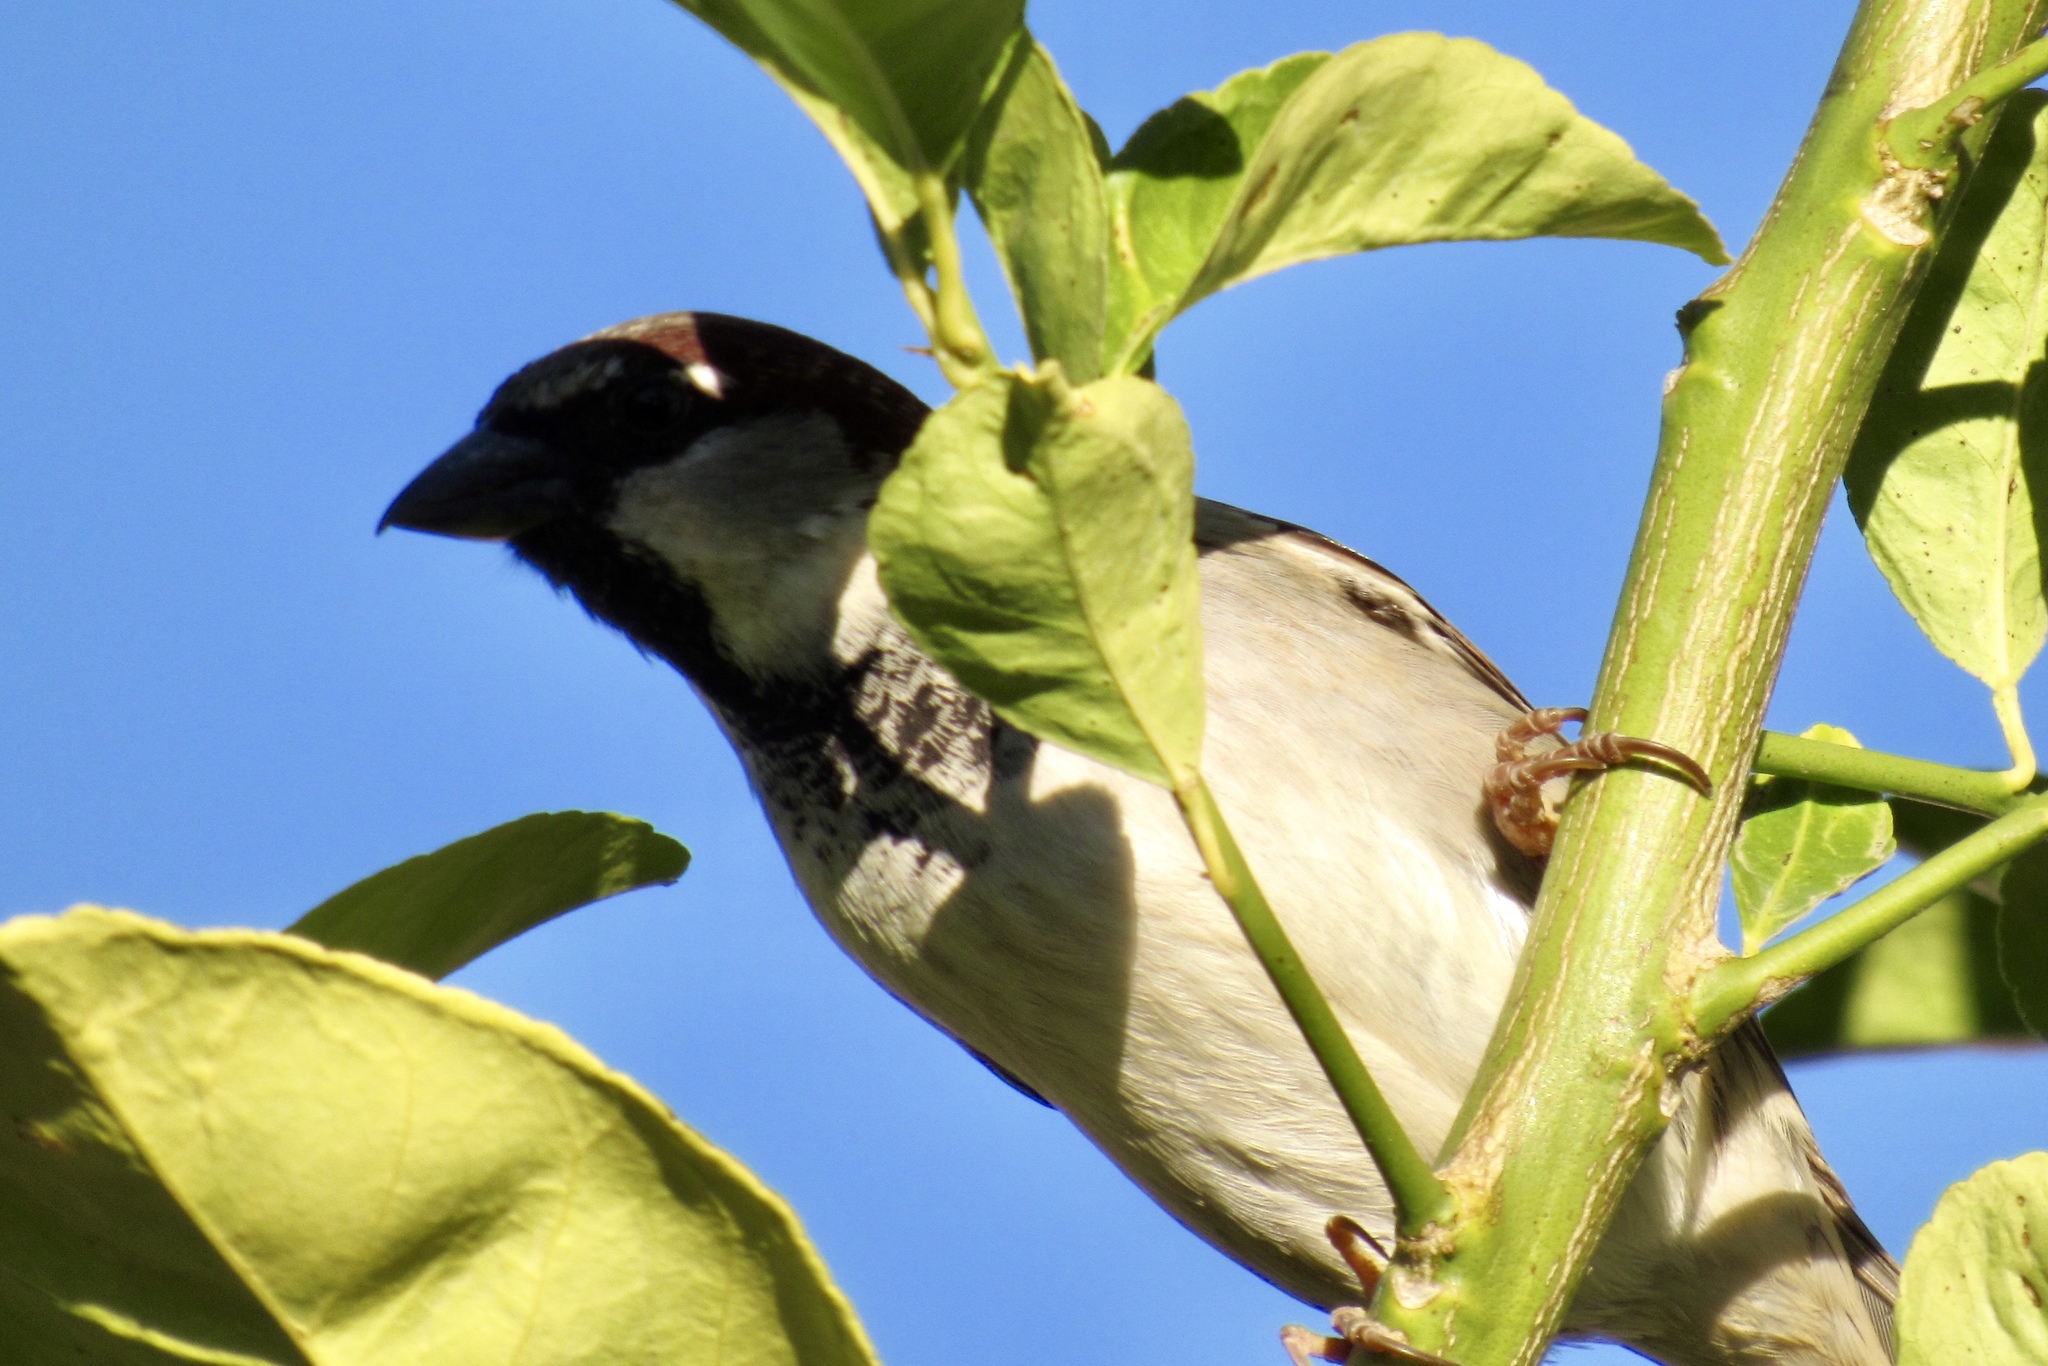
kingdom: Animalia
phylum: Chordata
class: Aves
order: Passeriformes
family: Passeridae
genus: Passer
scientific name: Passer domesticus
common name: House sparrow
